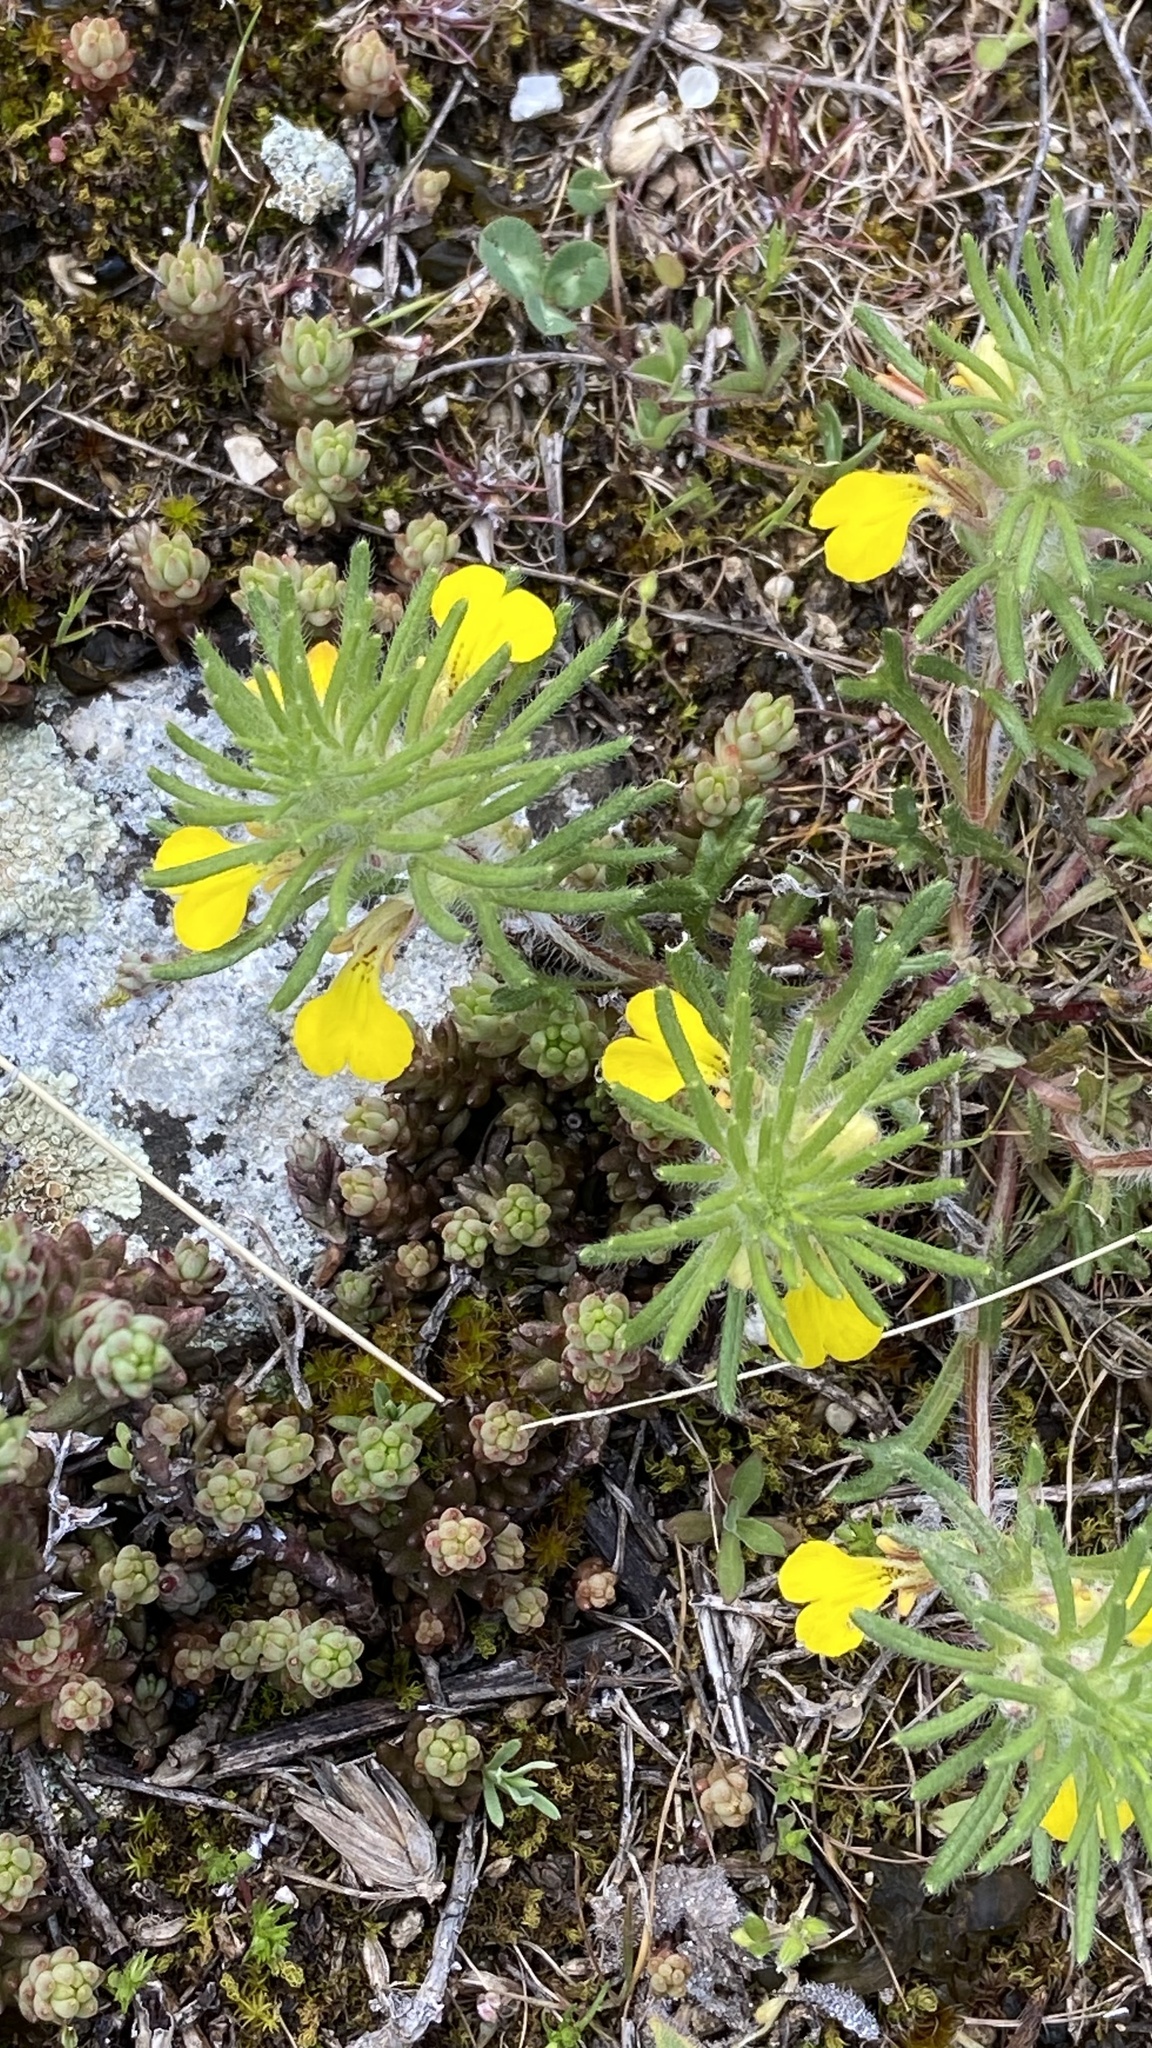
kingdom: Plantae
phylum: Tracheophyta
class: Magnoliopsida
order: Lamiales
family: Lamiaceae
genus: Ajuga
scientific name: Ajuga chamaepitys
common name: Ground-pine
